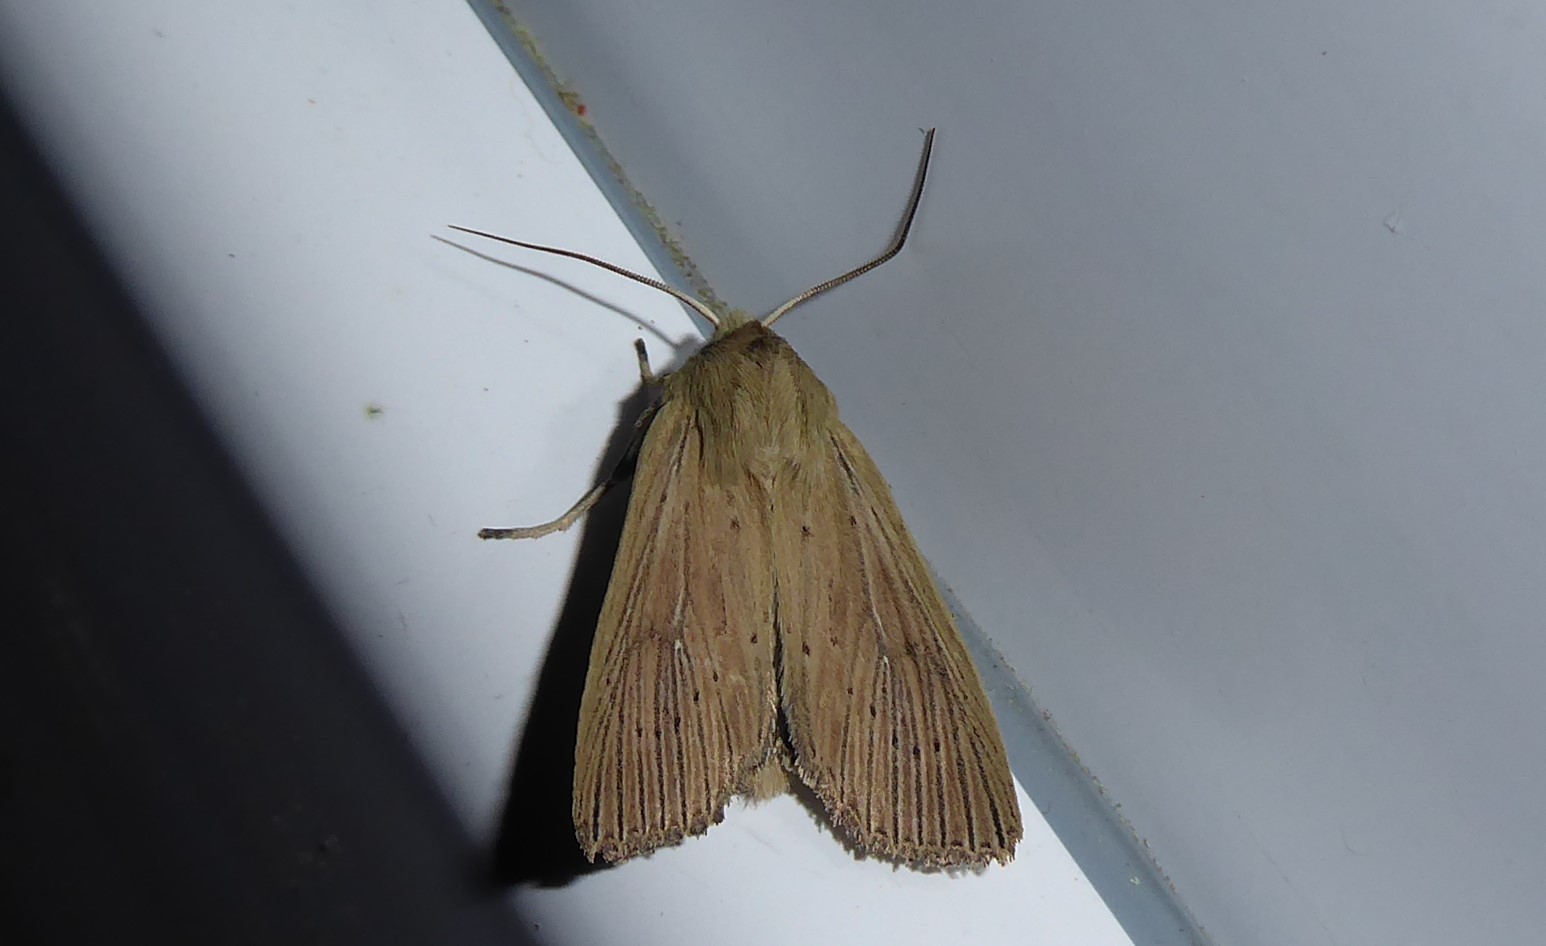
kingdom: Animalia
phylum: Arthropoda
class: Insecta
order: Lepidoptera
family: Noctuidae
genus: Ichneutica
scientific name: Ichneutica arotis
